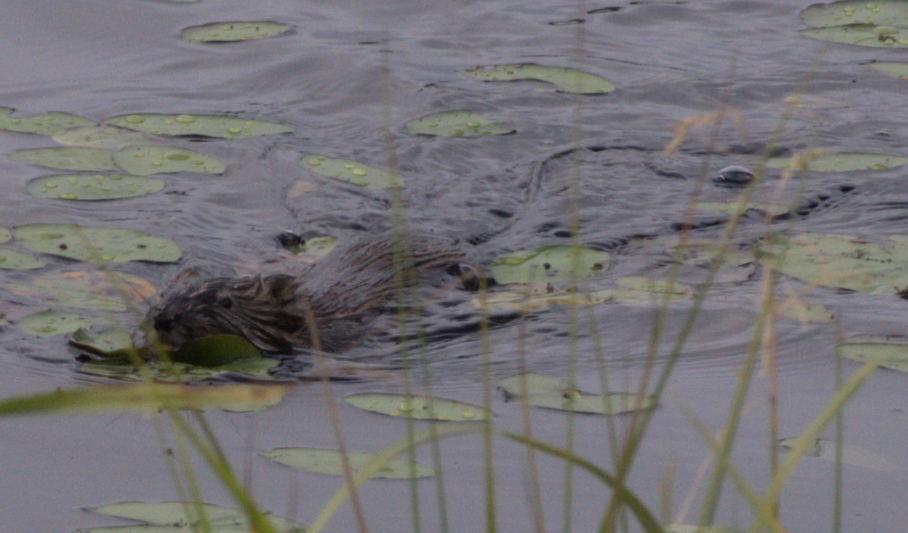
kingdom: Animalia
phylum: Chordata
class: Mammalia
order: Rodentia
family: Cricetidae
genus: Ondatra
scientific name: Ondatra zibethicus
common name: Muskrat
